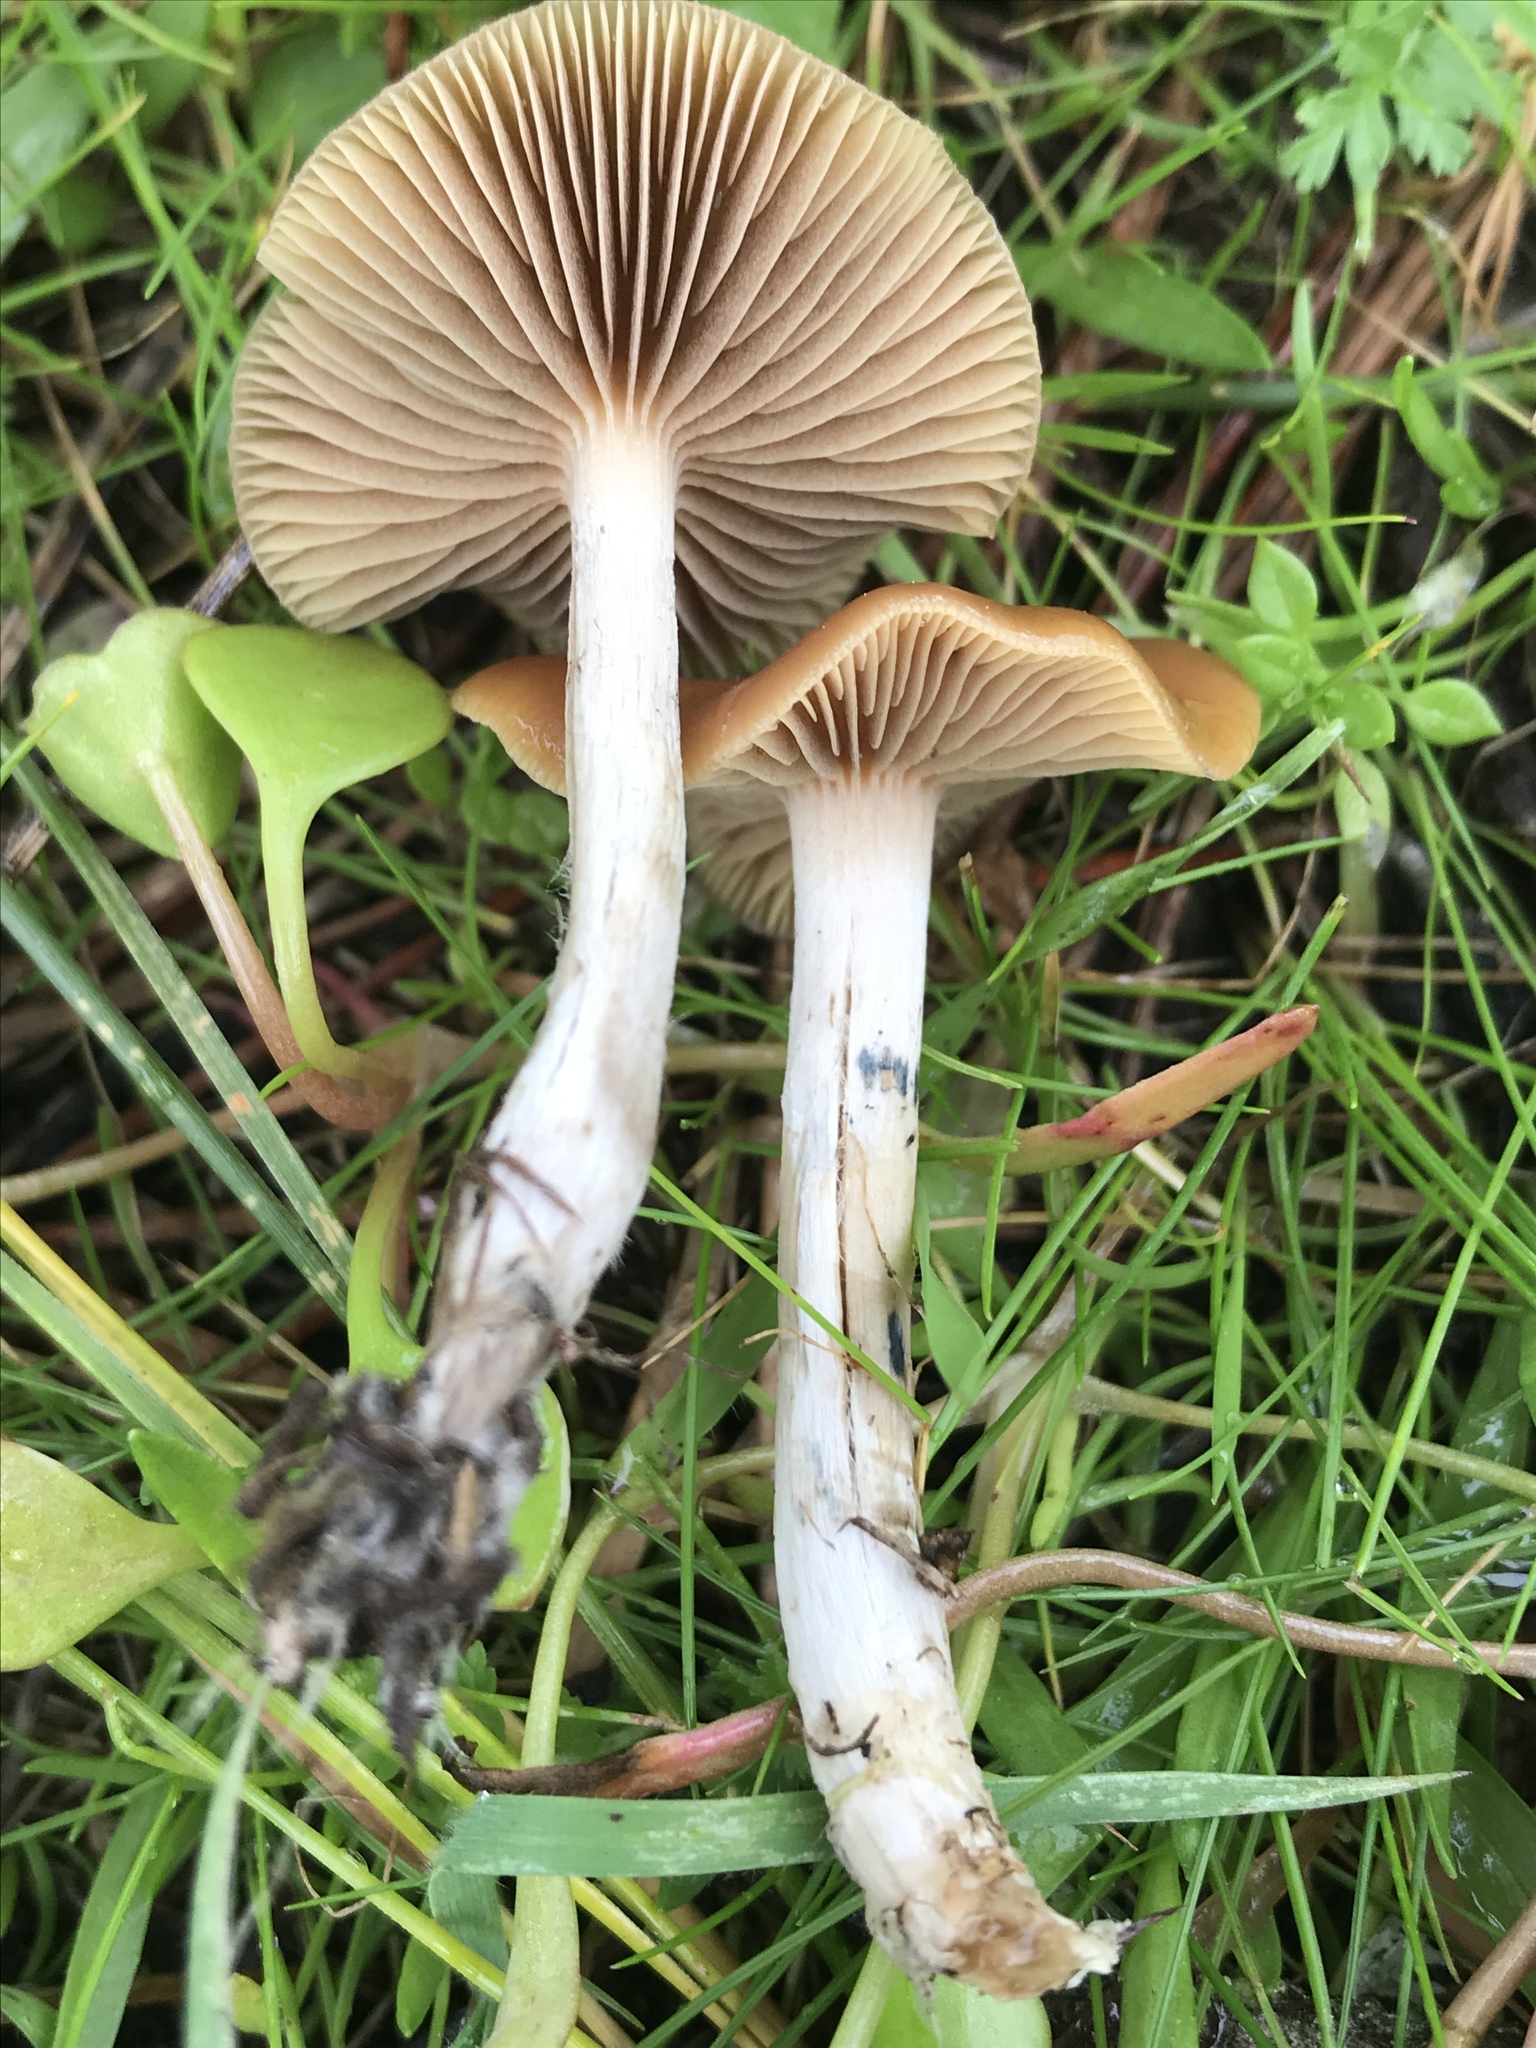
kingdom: Fungi
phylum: Basidiomycota
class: Agaricomycetes
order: Agaricales
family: Hymenogastraceae
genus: Psilocybe
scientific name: Psilocybe cyanescens
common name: Blueleg brownie
